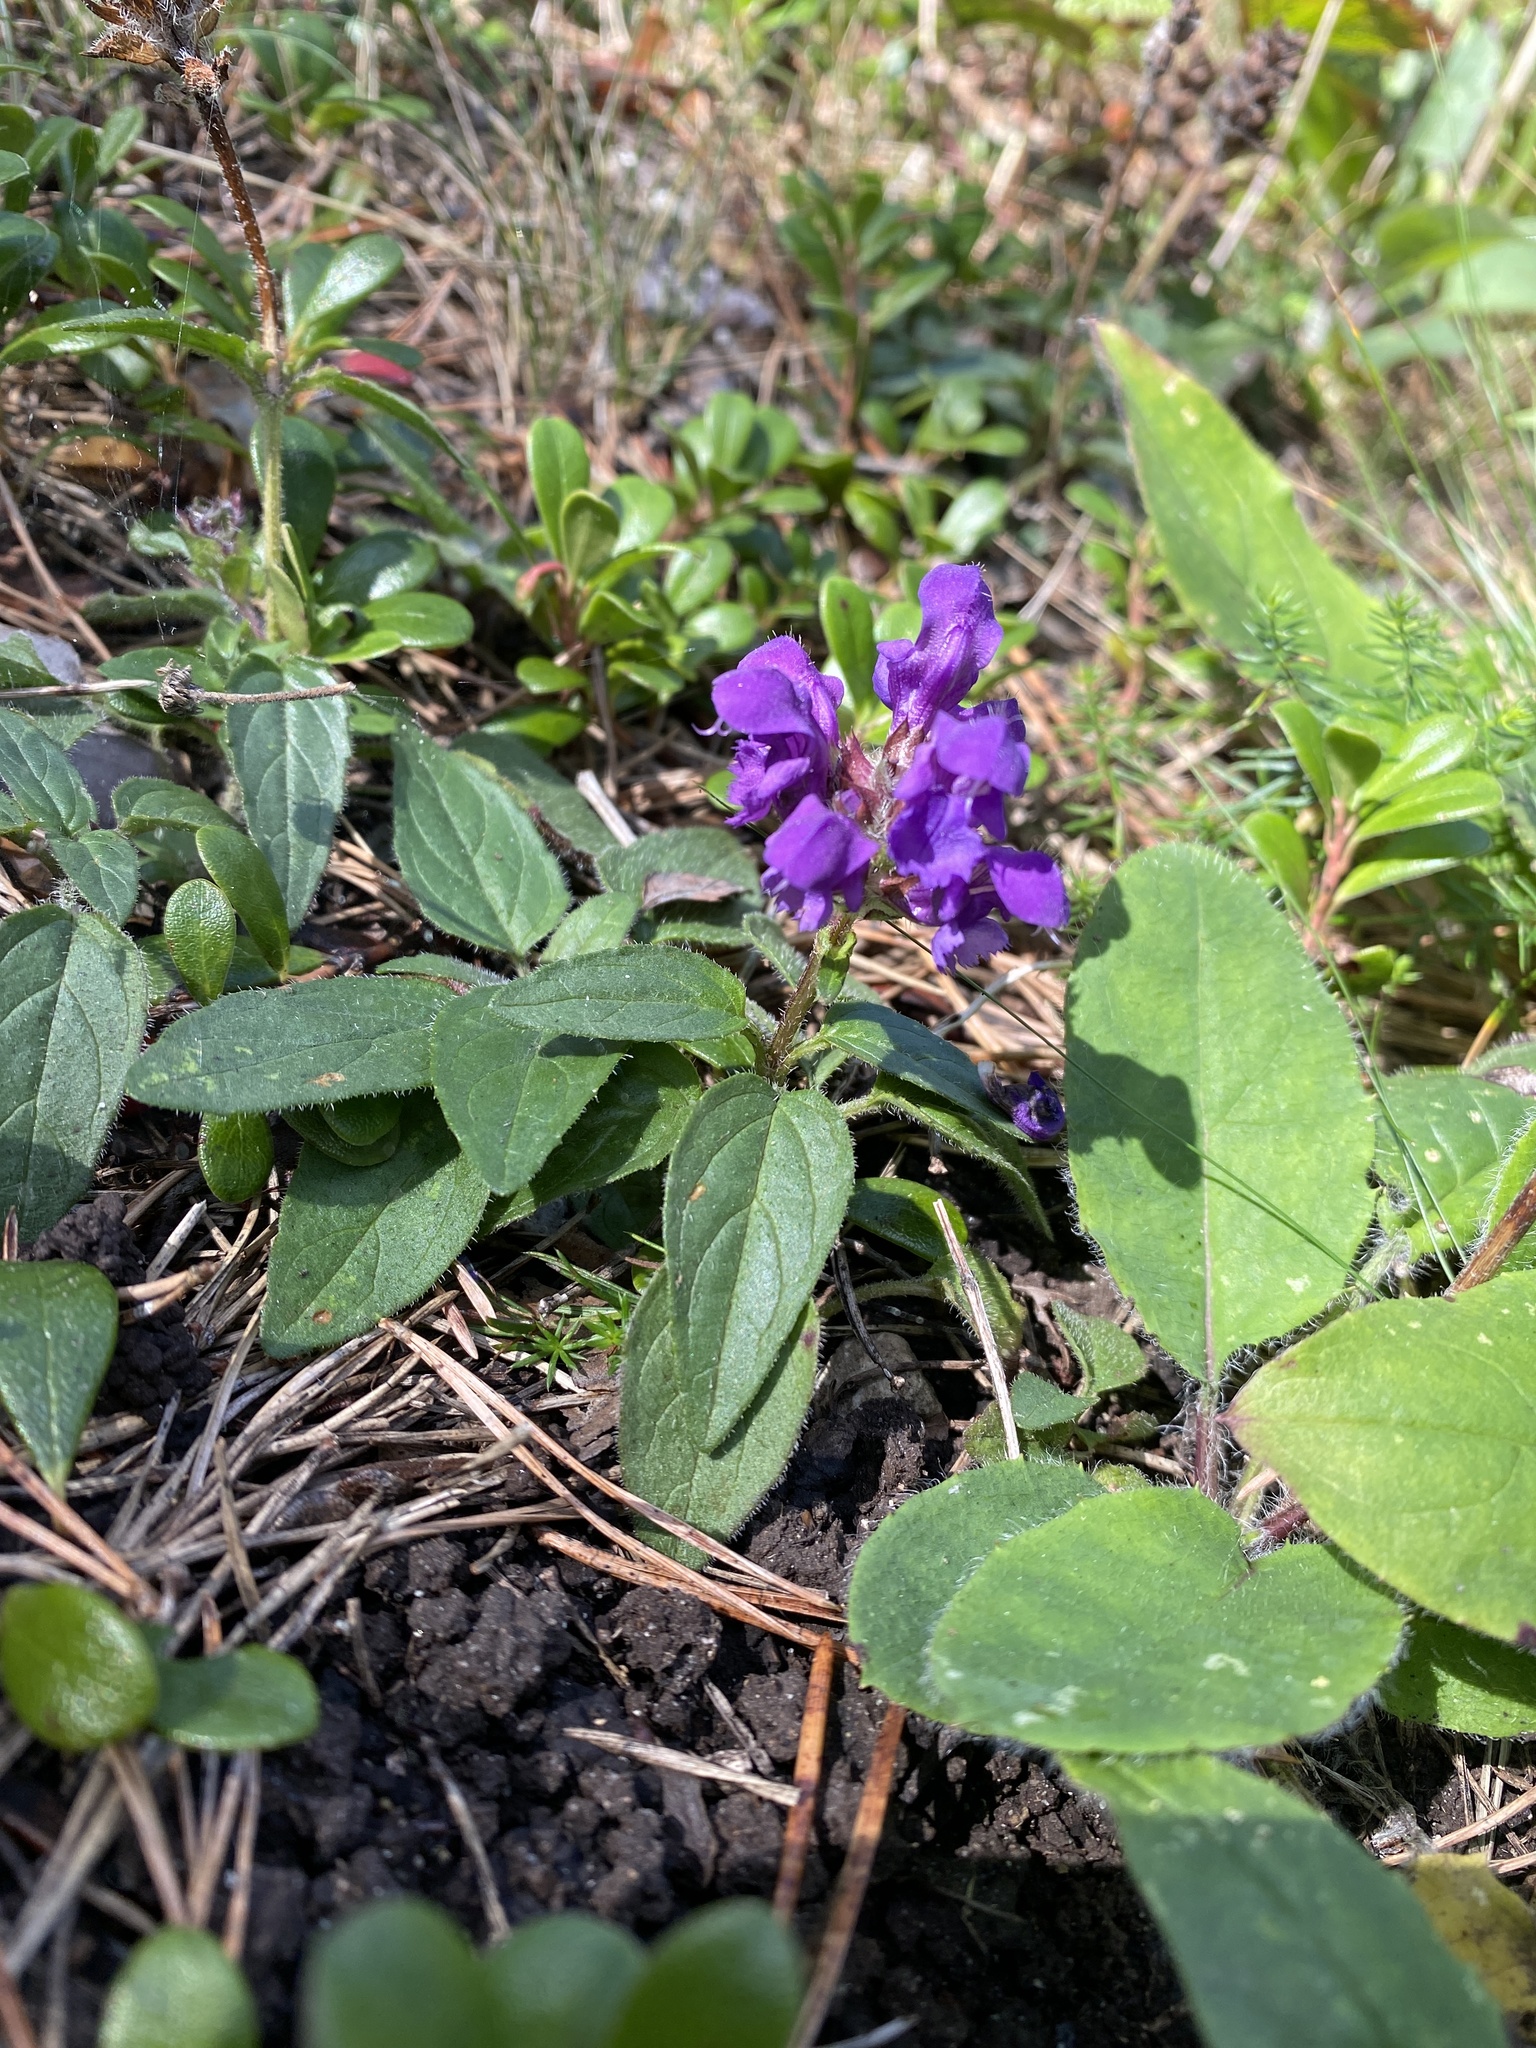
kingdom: Plantae
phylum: Tracheophyta
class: Magnoliopsida
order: Lamiales
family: Lamiaceae
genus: Prunella
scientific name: Prunella grandiflora
